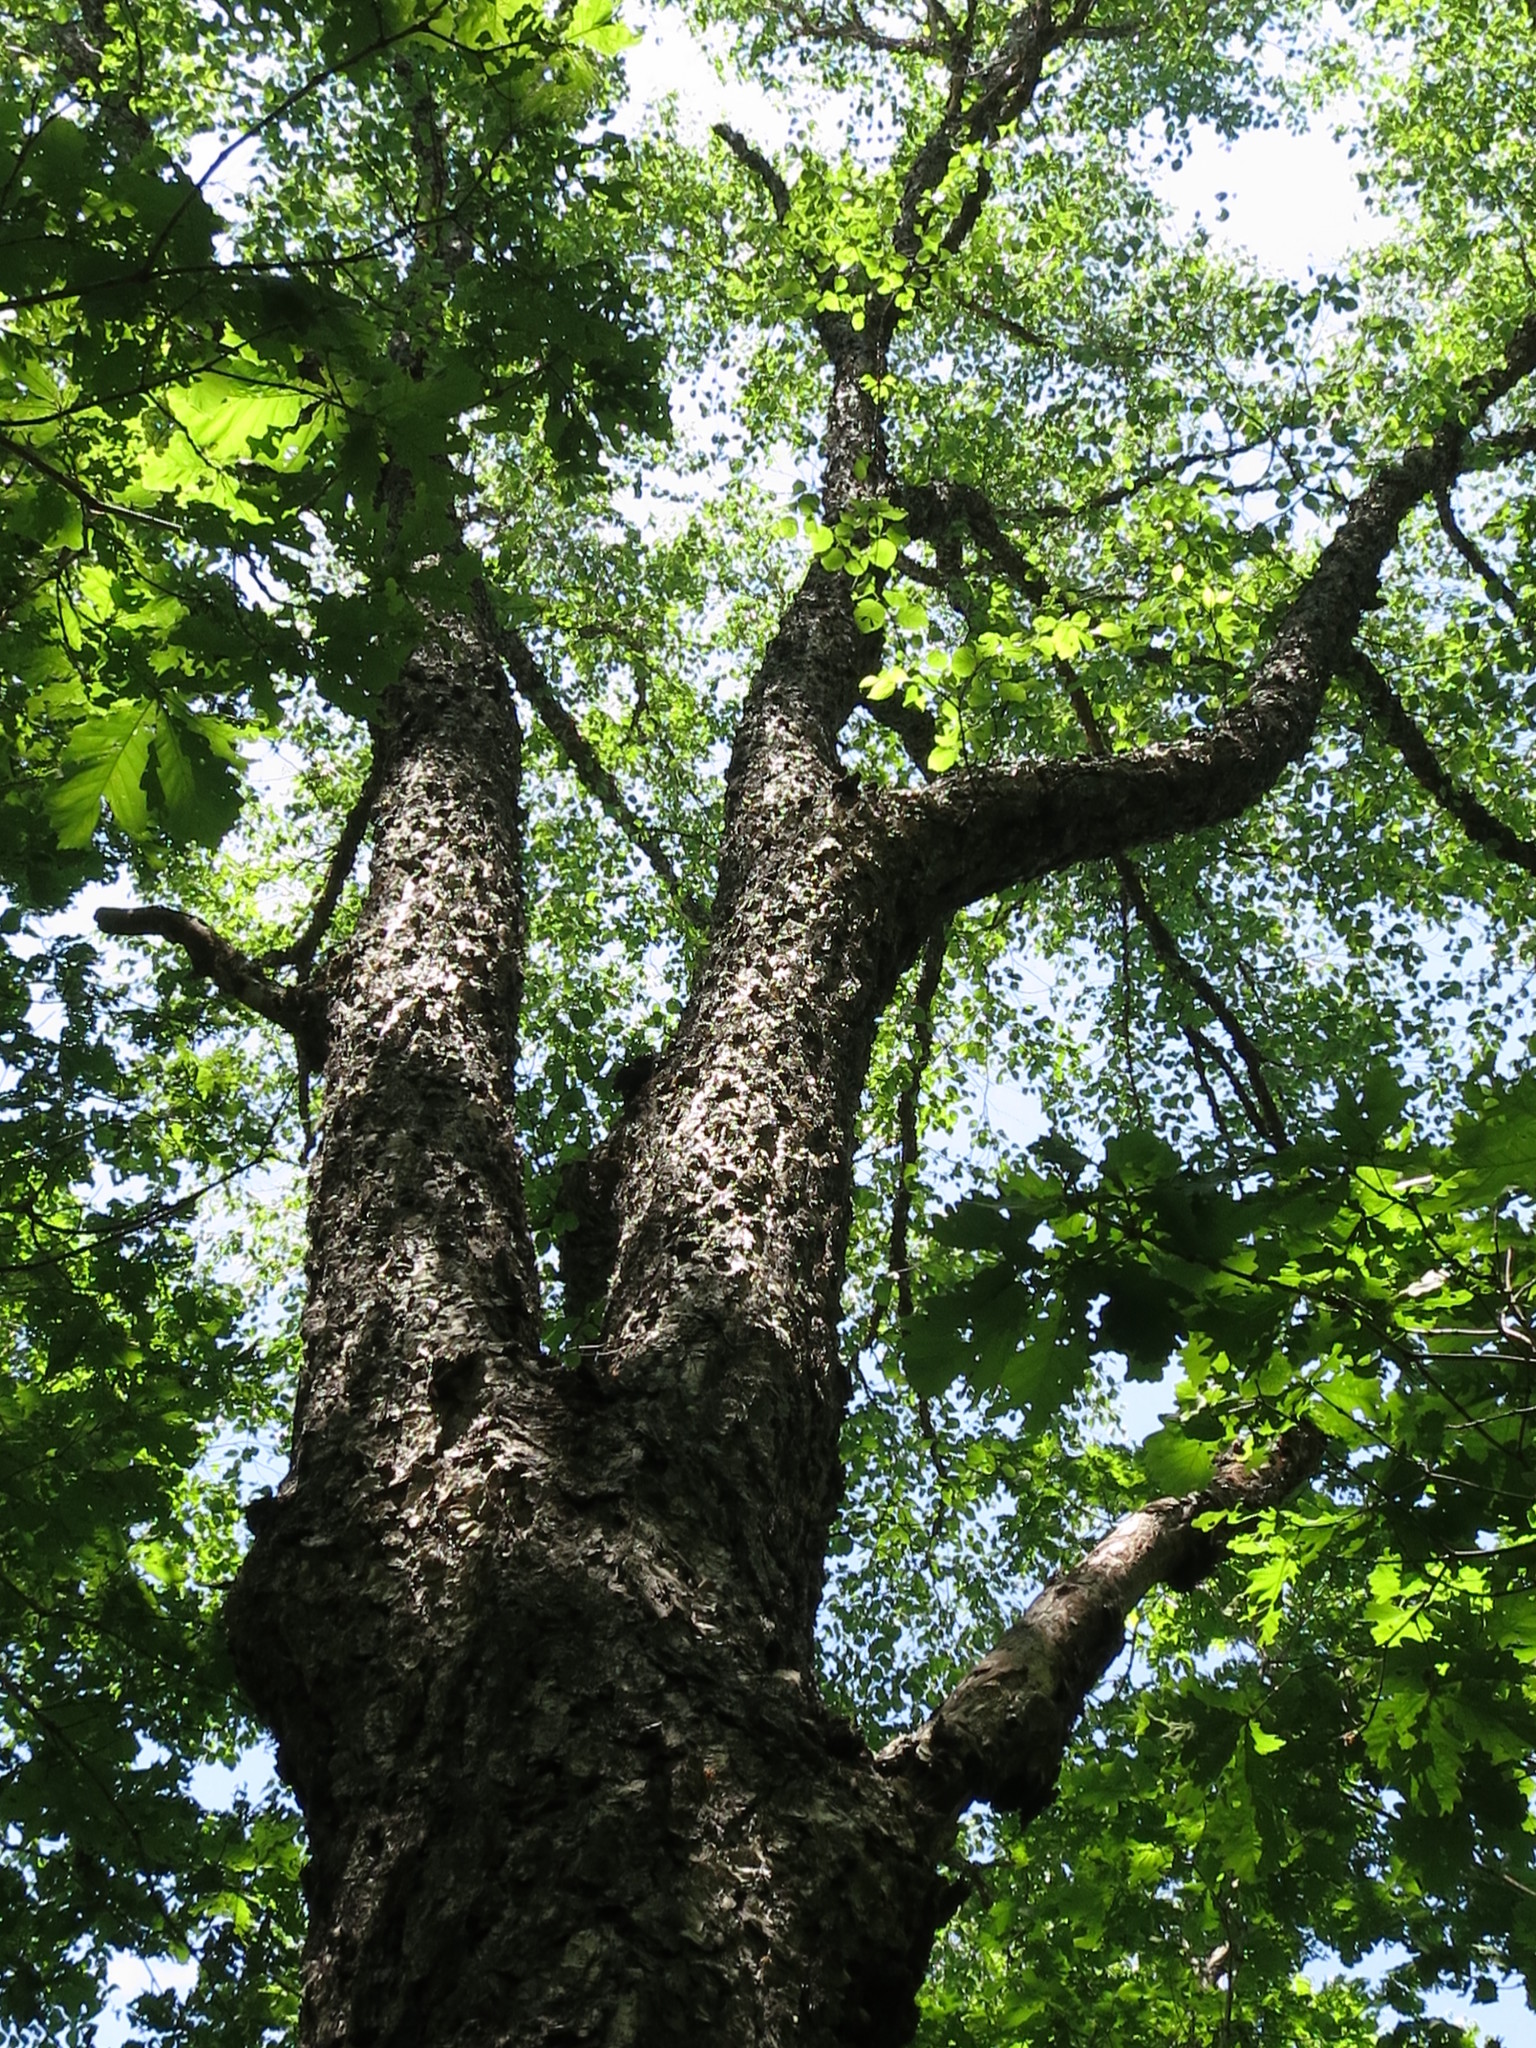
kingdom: Plantae
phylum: Tracheophyta
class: Magnoliopsida
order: Fagales
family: Betulaceae
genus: Betula
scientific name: Betula dauurica
